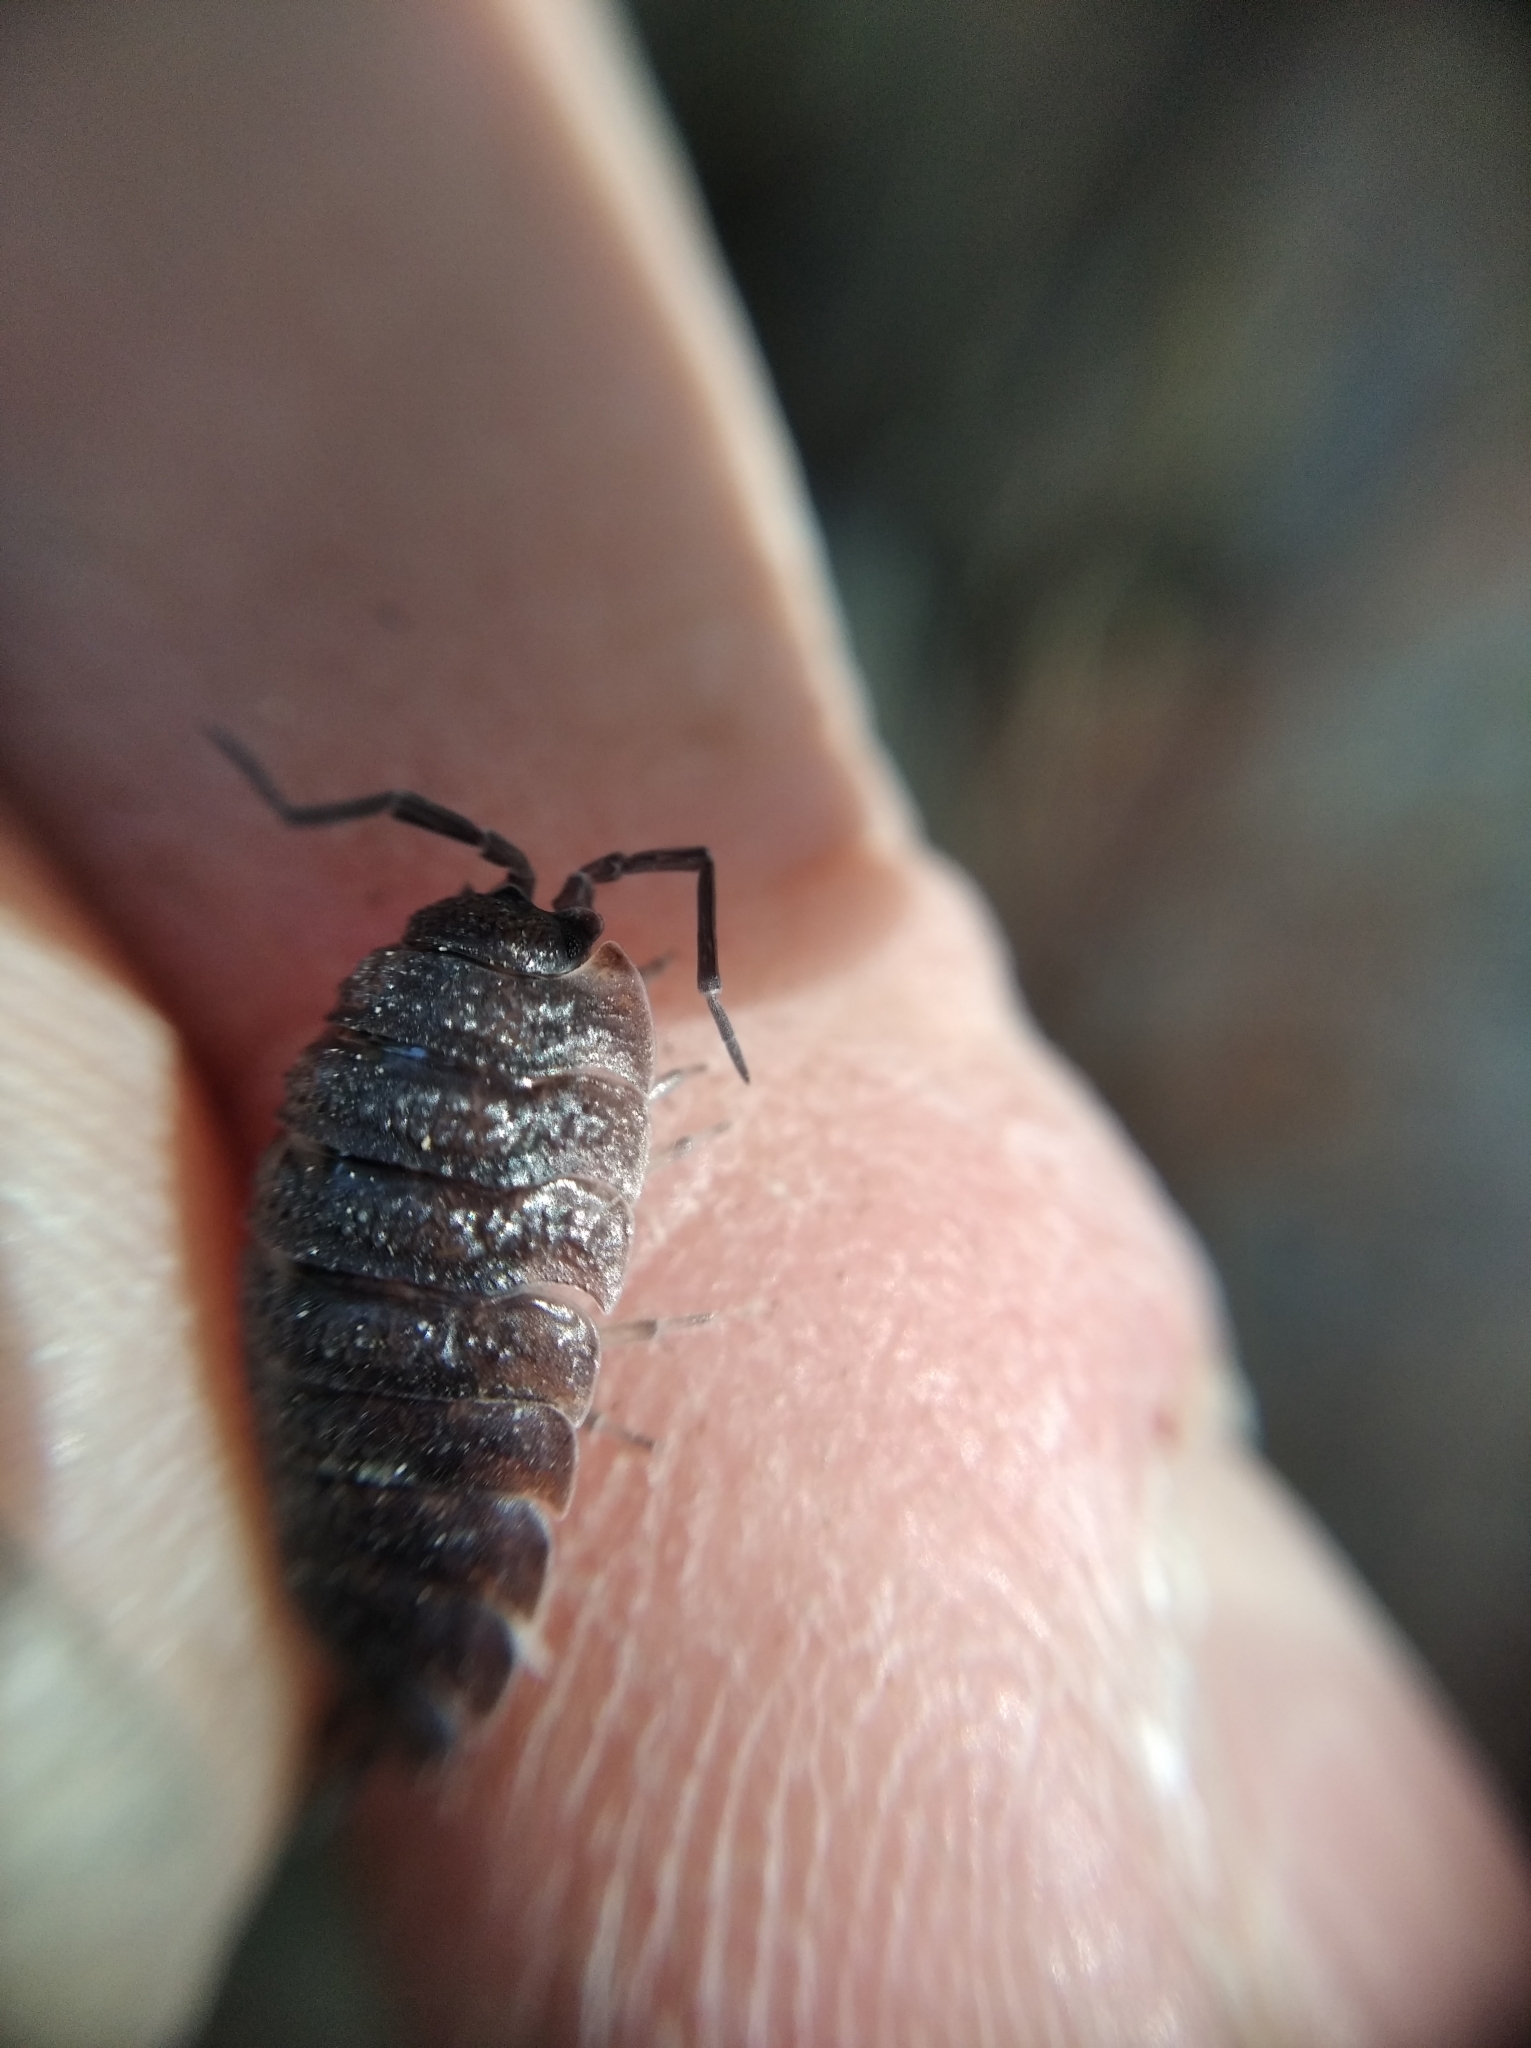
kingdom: Animalia
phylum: Arthropoda
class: Malacostraca
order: Isopoda
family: Porcellionidae
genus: Porcellio
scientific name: Porcellio scaber
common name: Common rough woodlouse
